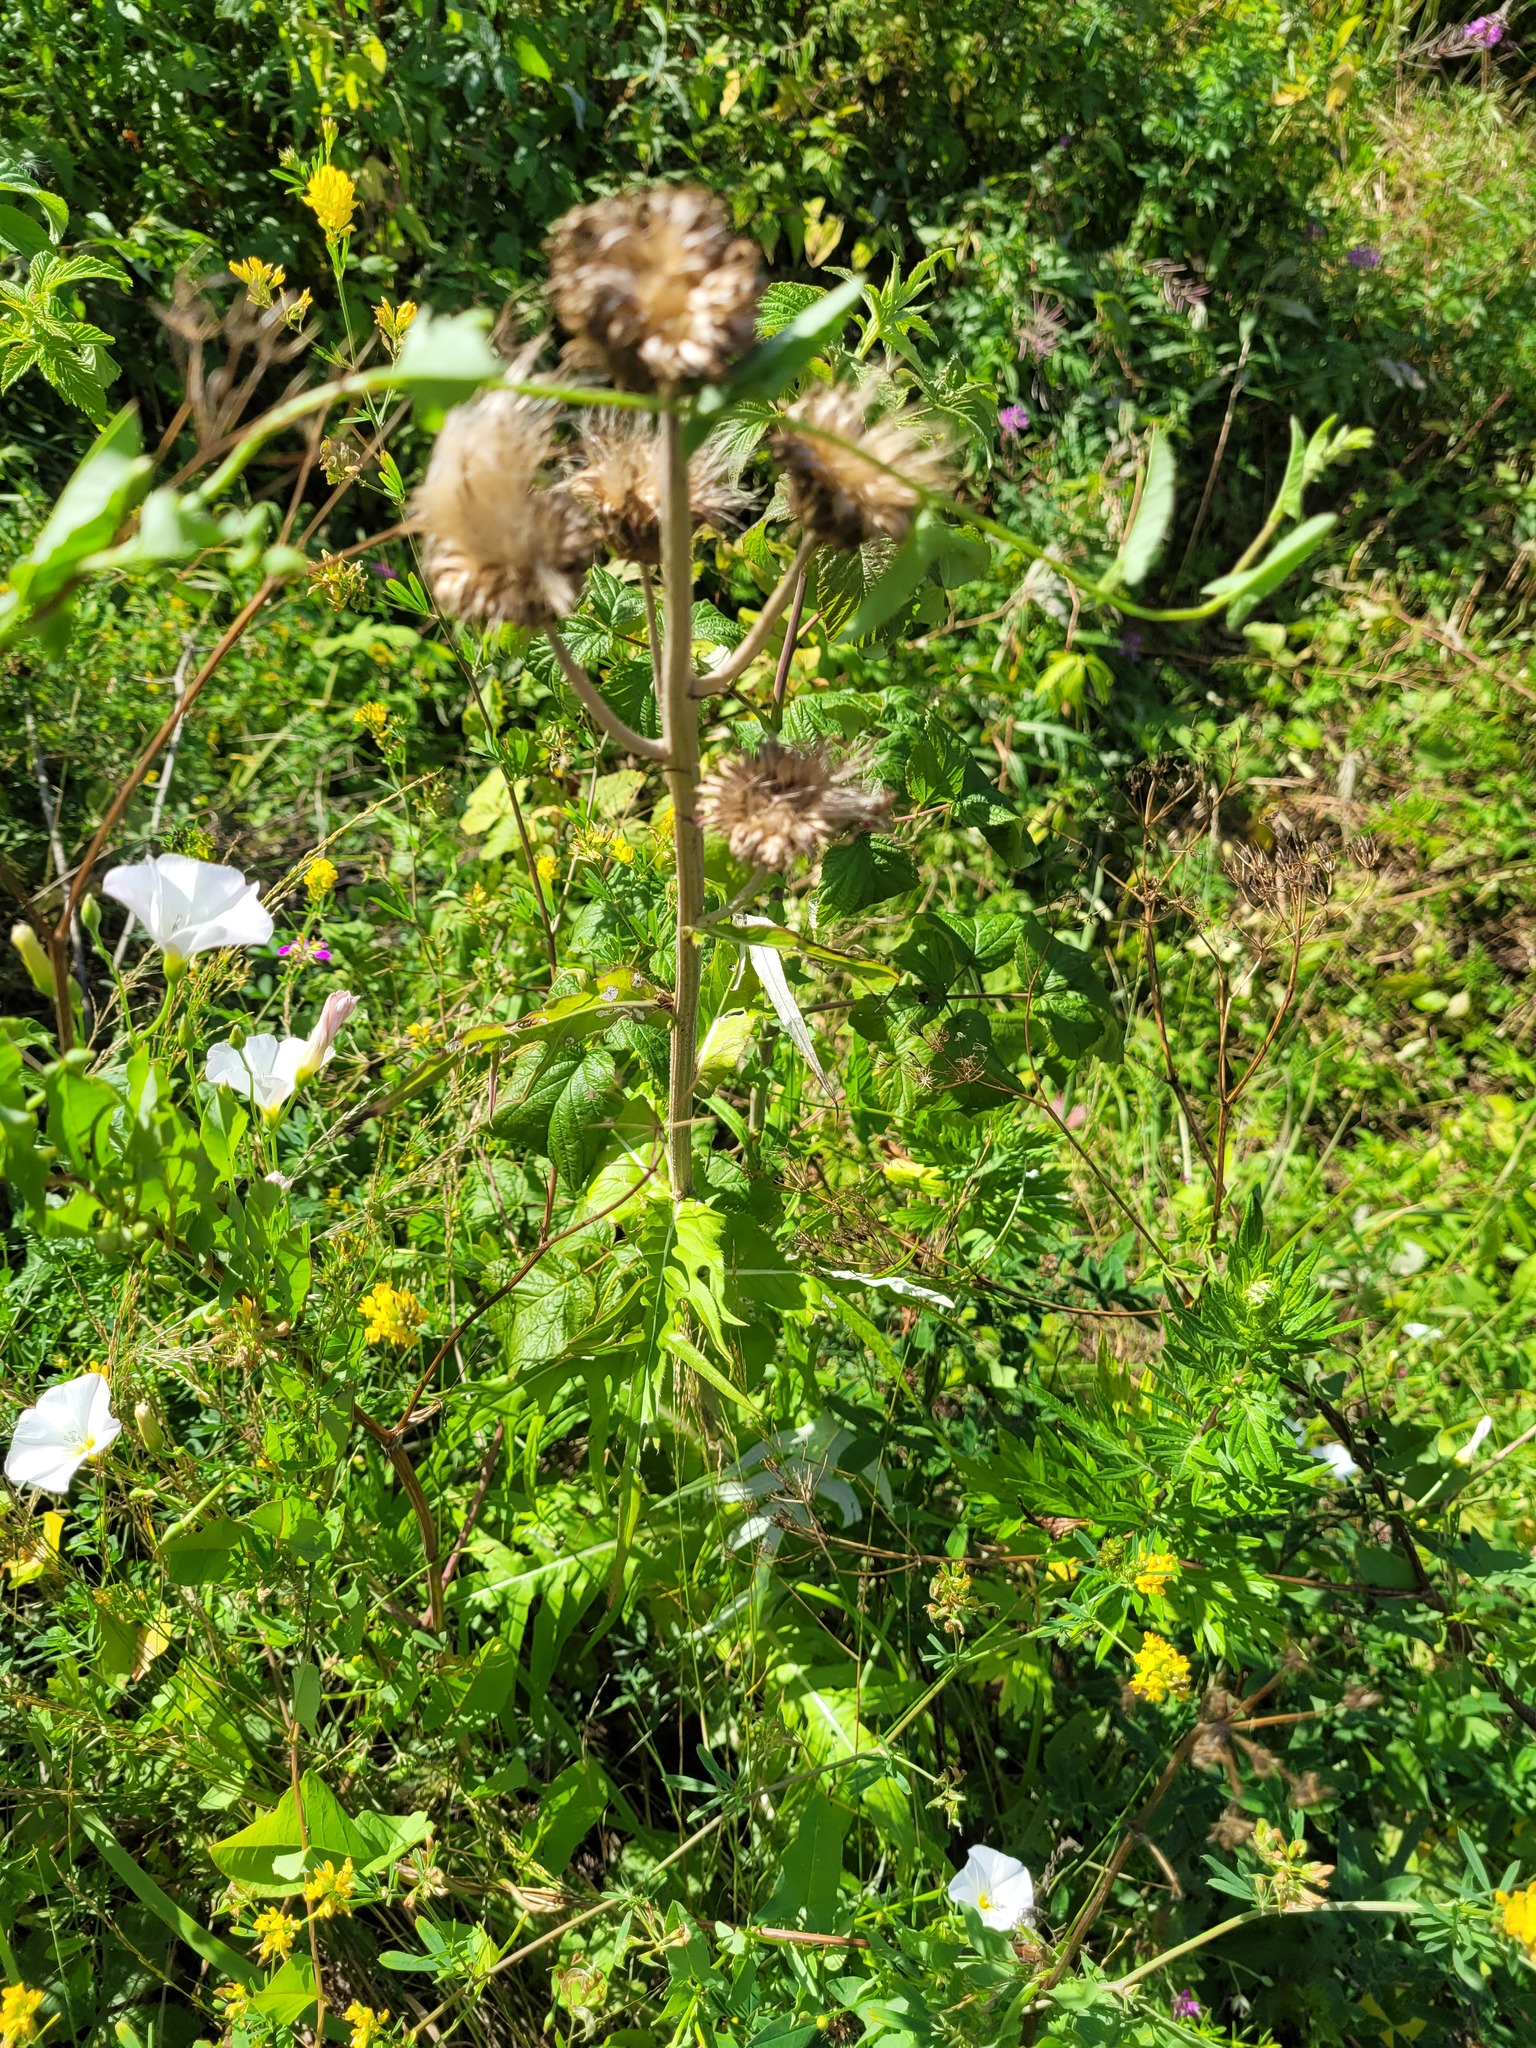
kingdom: Plantae
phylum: Tracheophyta
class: Magnoliopsida
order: Asterales
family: Asteraceae
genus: Cirsium
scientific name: Cirsium heterophyllum
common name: Melancholy thistle
